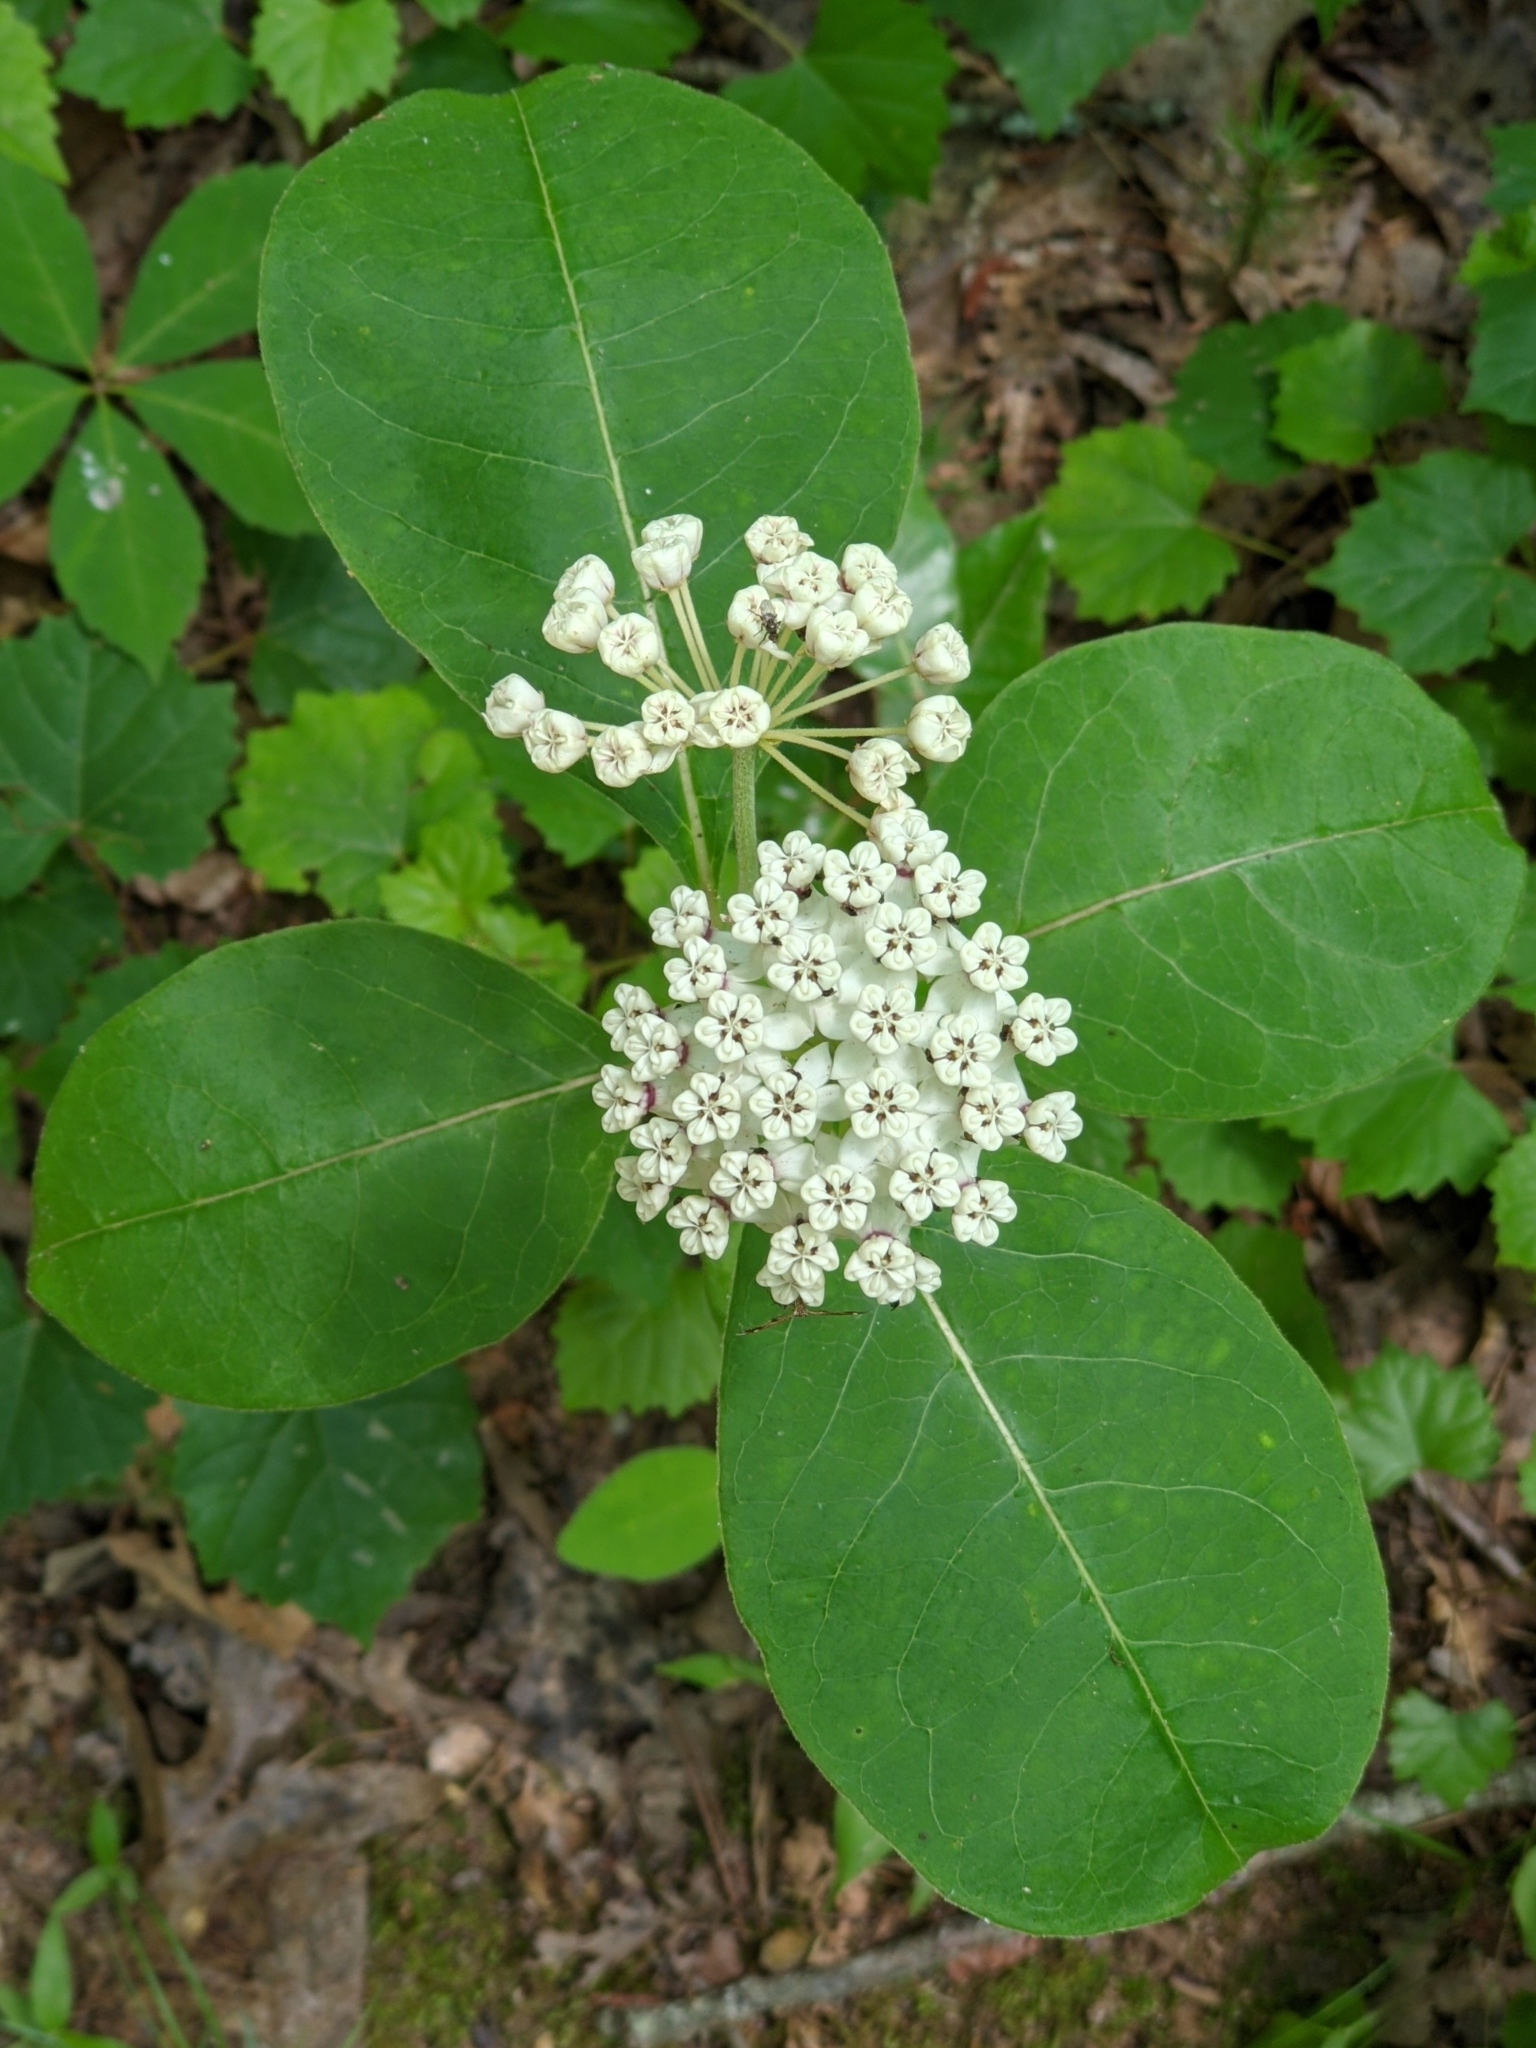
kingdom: Plantae
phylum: Tracheophyta
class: Magnoliopsida
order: Gentianales
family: Apocynaceae
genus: Asclepias
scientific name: Asclepias variegata
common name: Variegated milkweed
